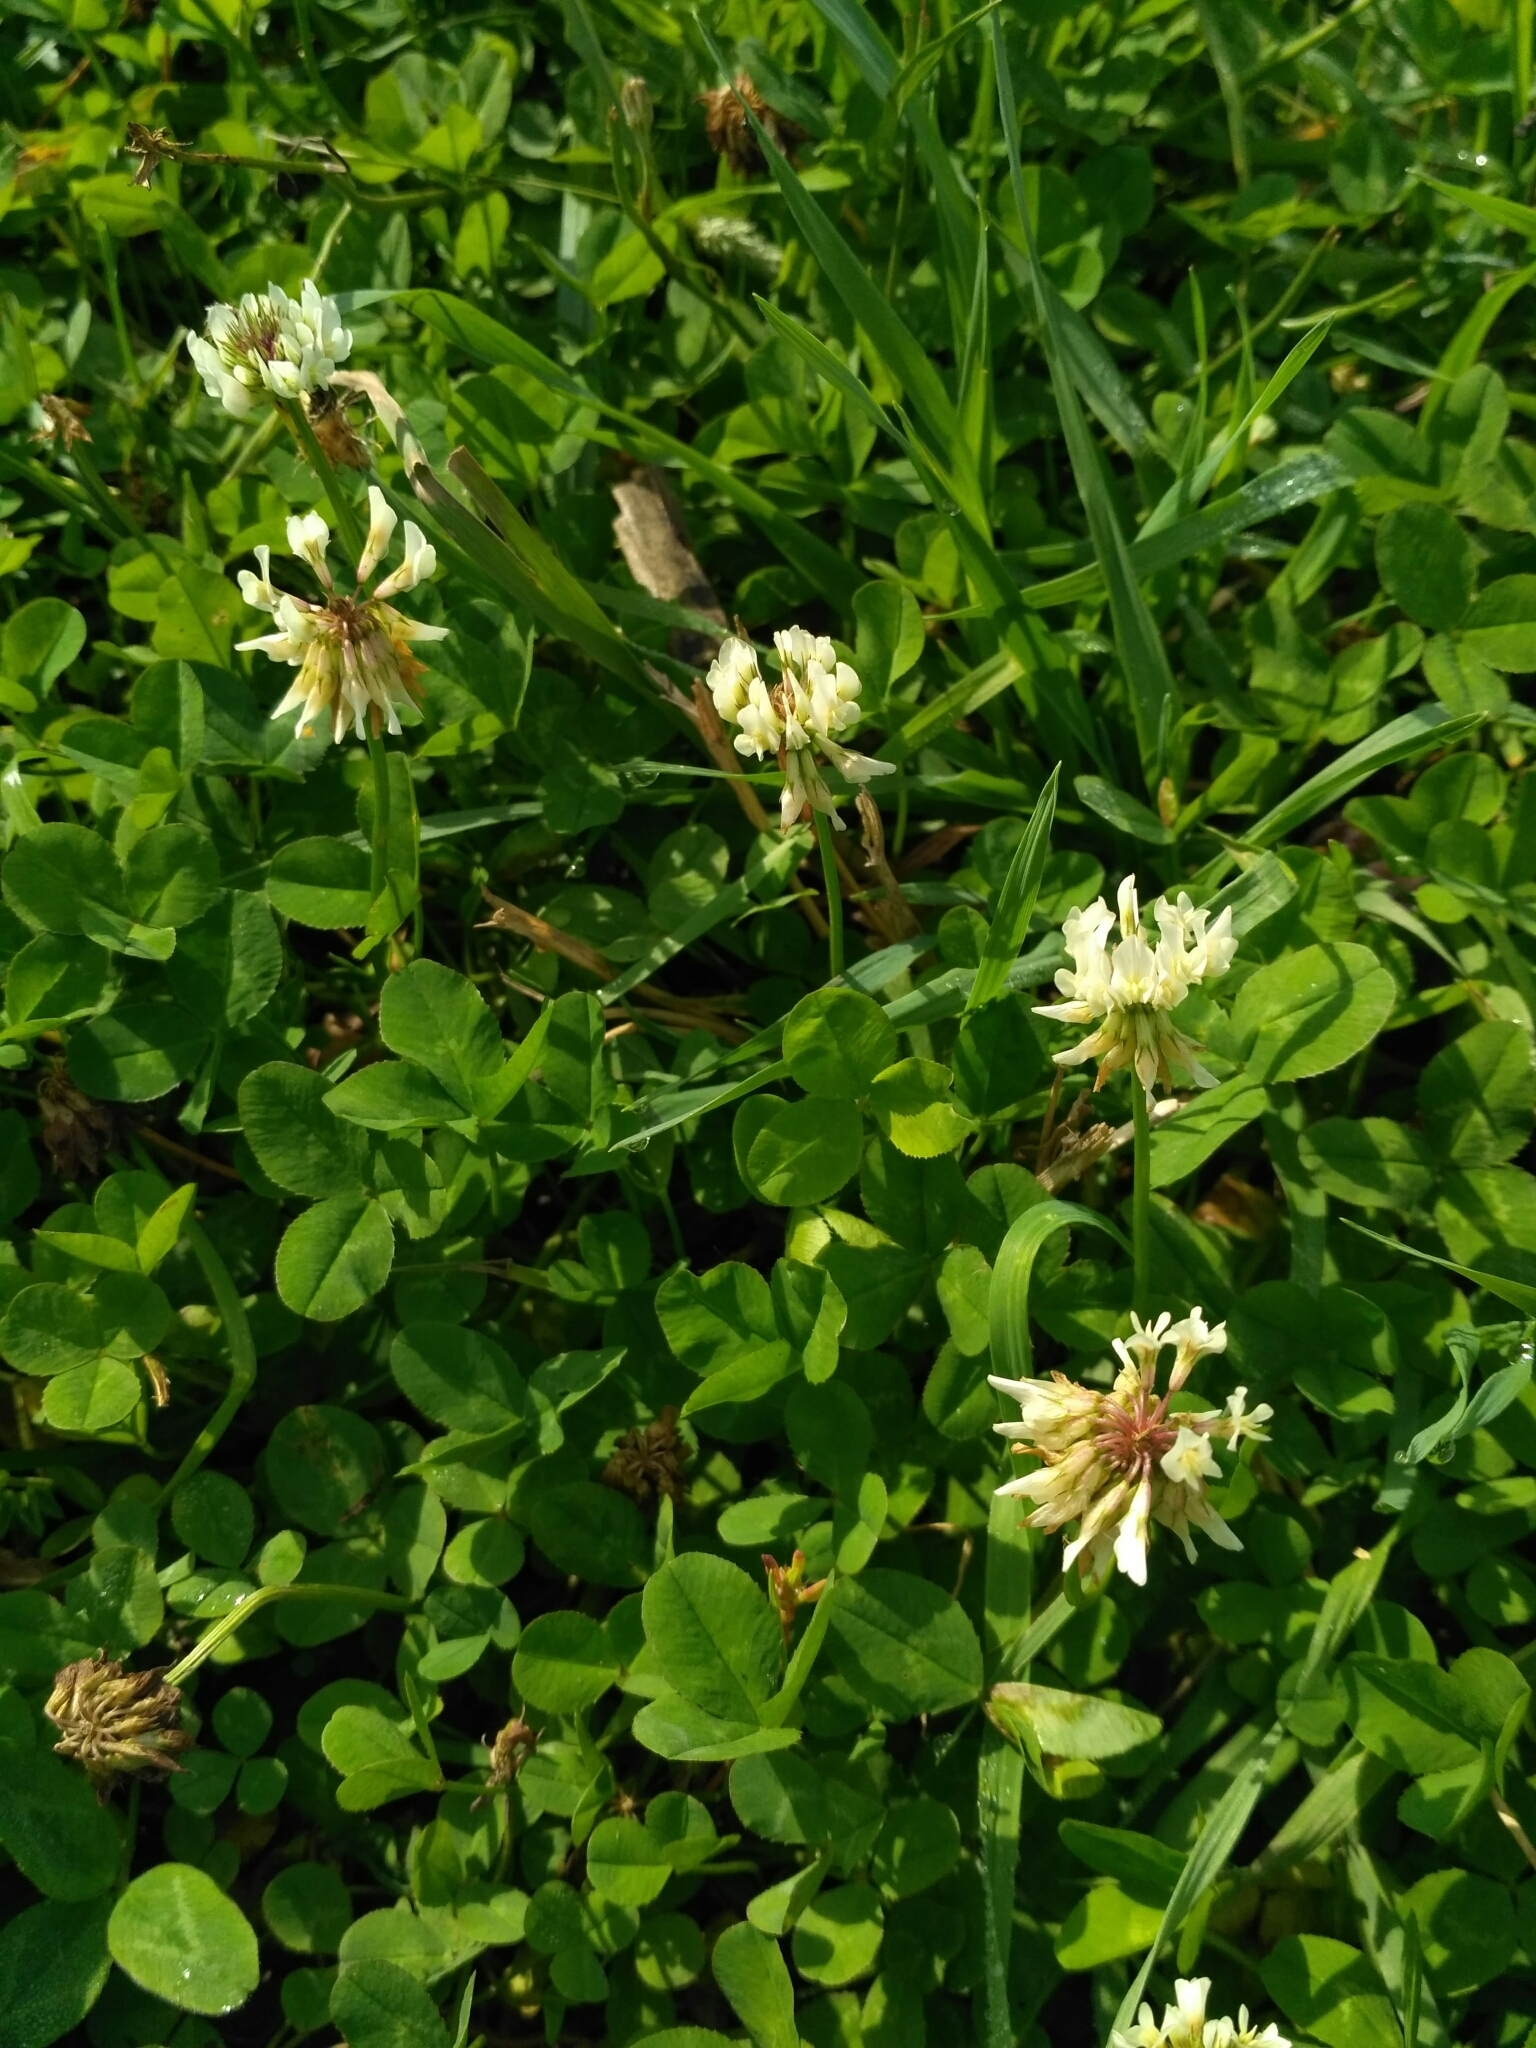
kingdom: Plantae
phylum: Tracheophyta
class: Magnoliopsida
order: Fabales
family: Fabaceae
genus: Trifolium
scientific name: Trifolium repens
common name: White clover
